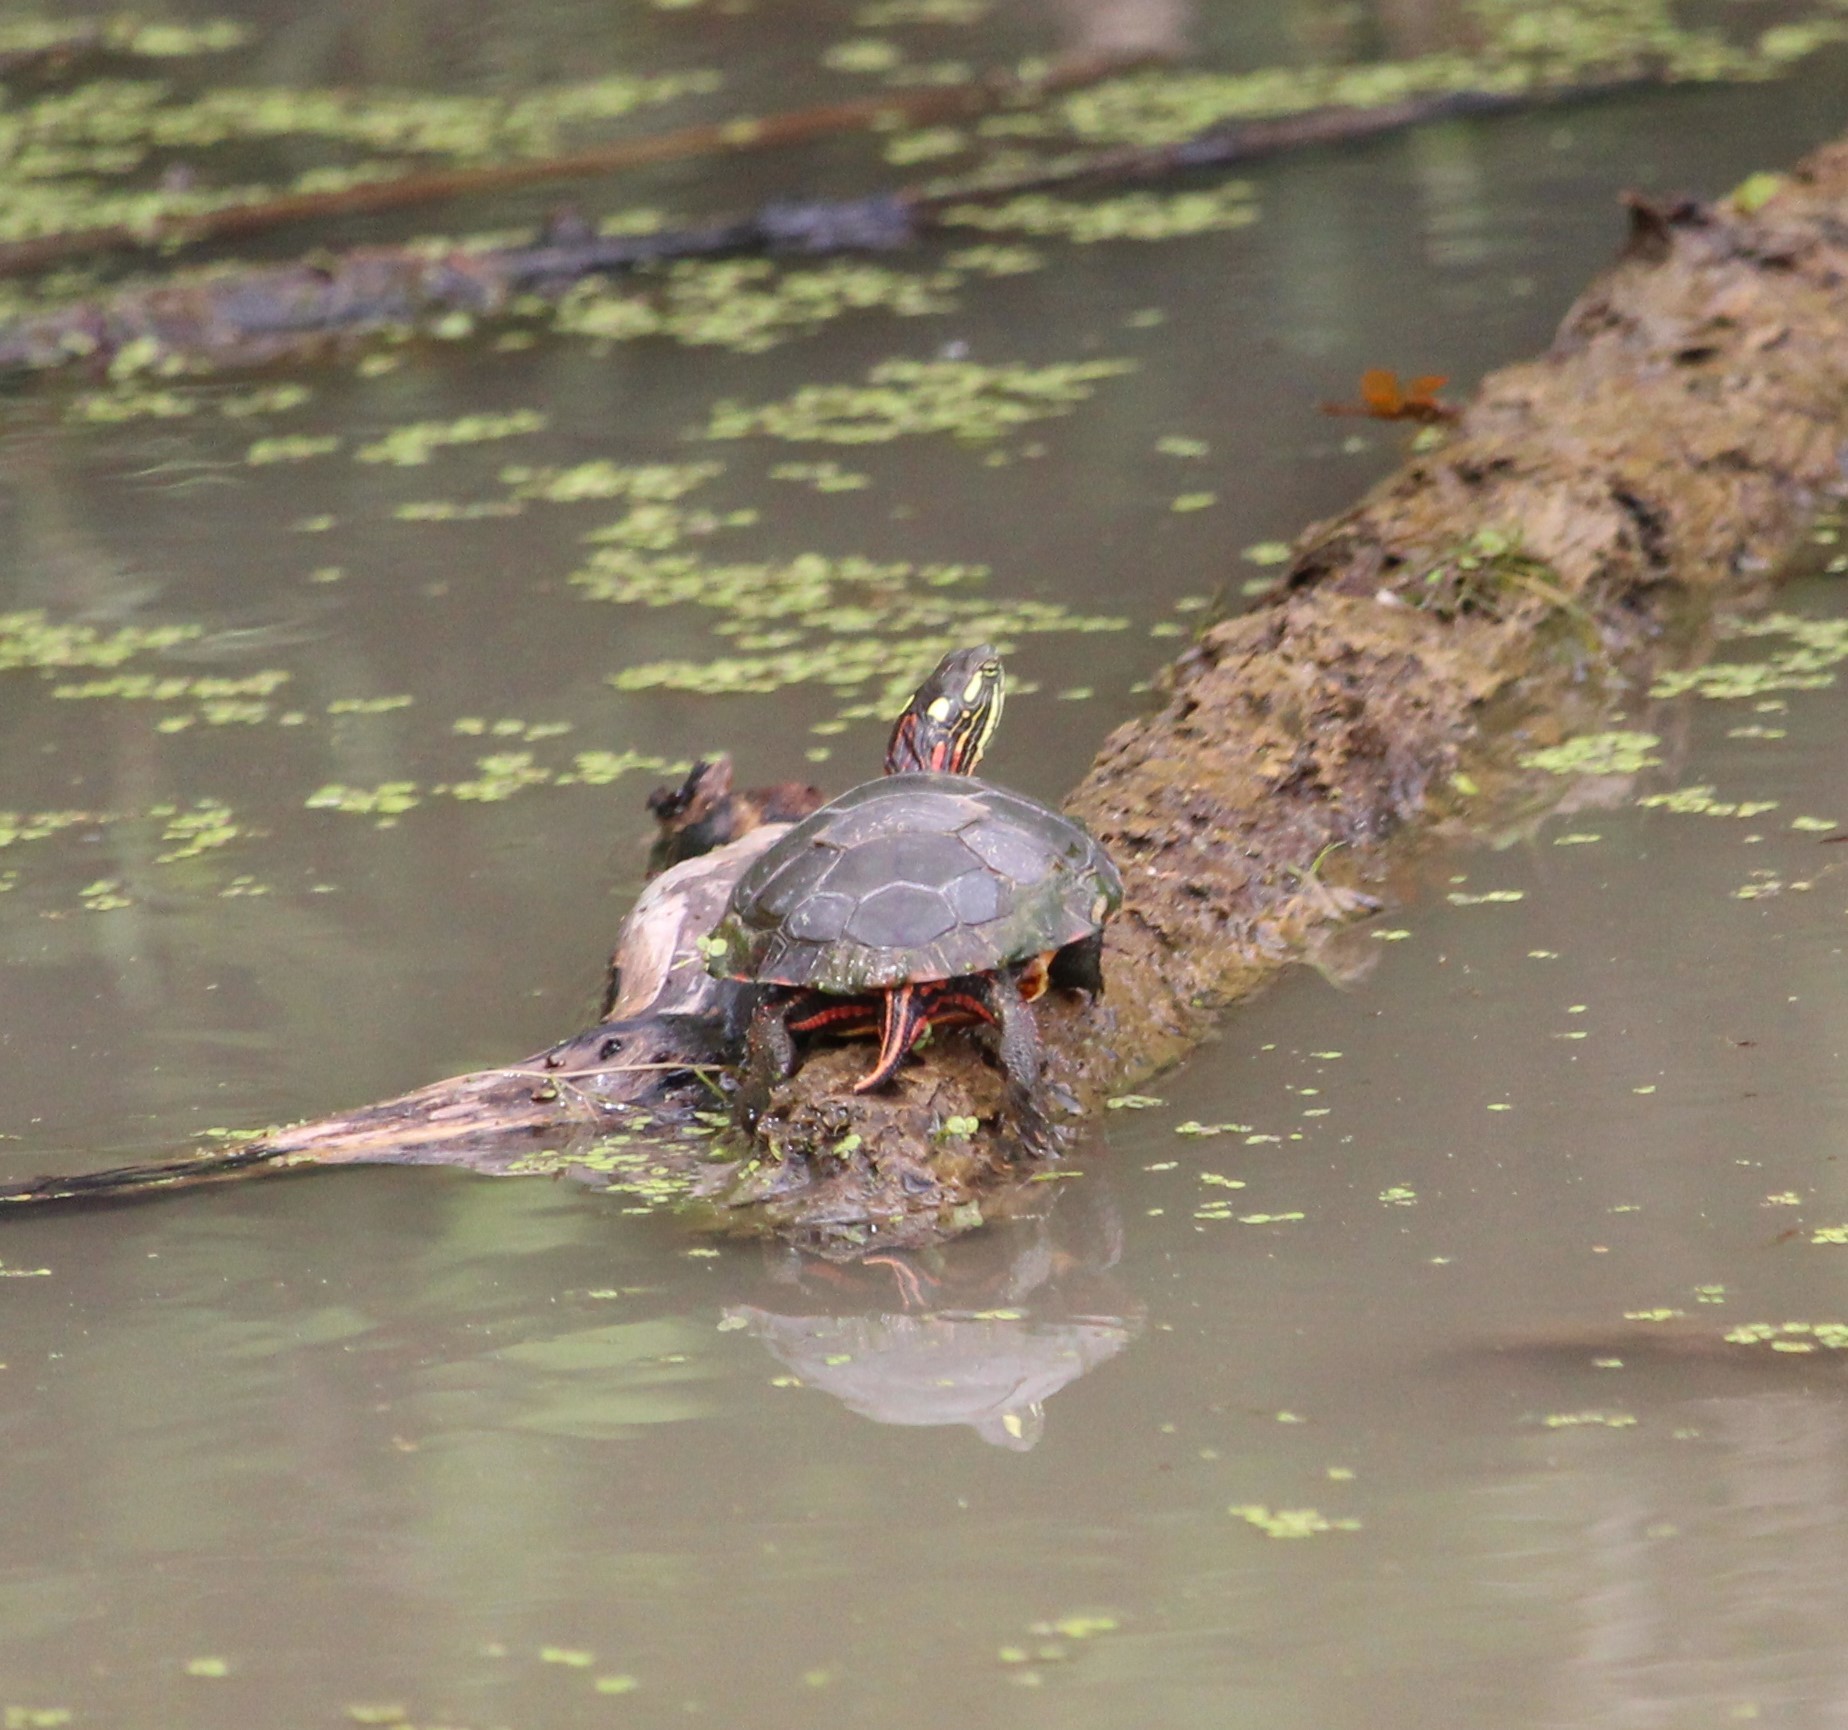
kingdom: Animalia
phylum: Chordata
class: Testudines
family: Emydidae
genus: Chrysemys
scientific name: Chrysemys picta
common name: Painted turtle
